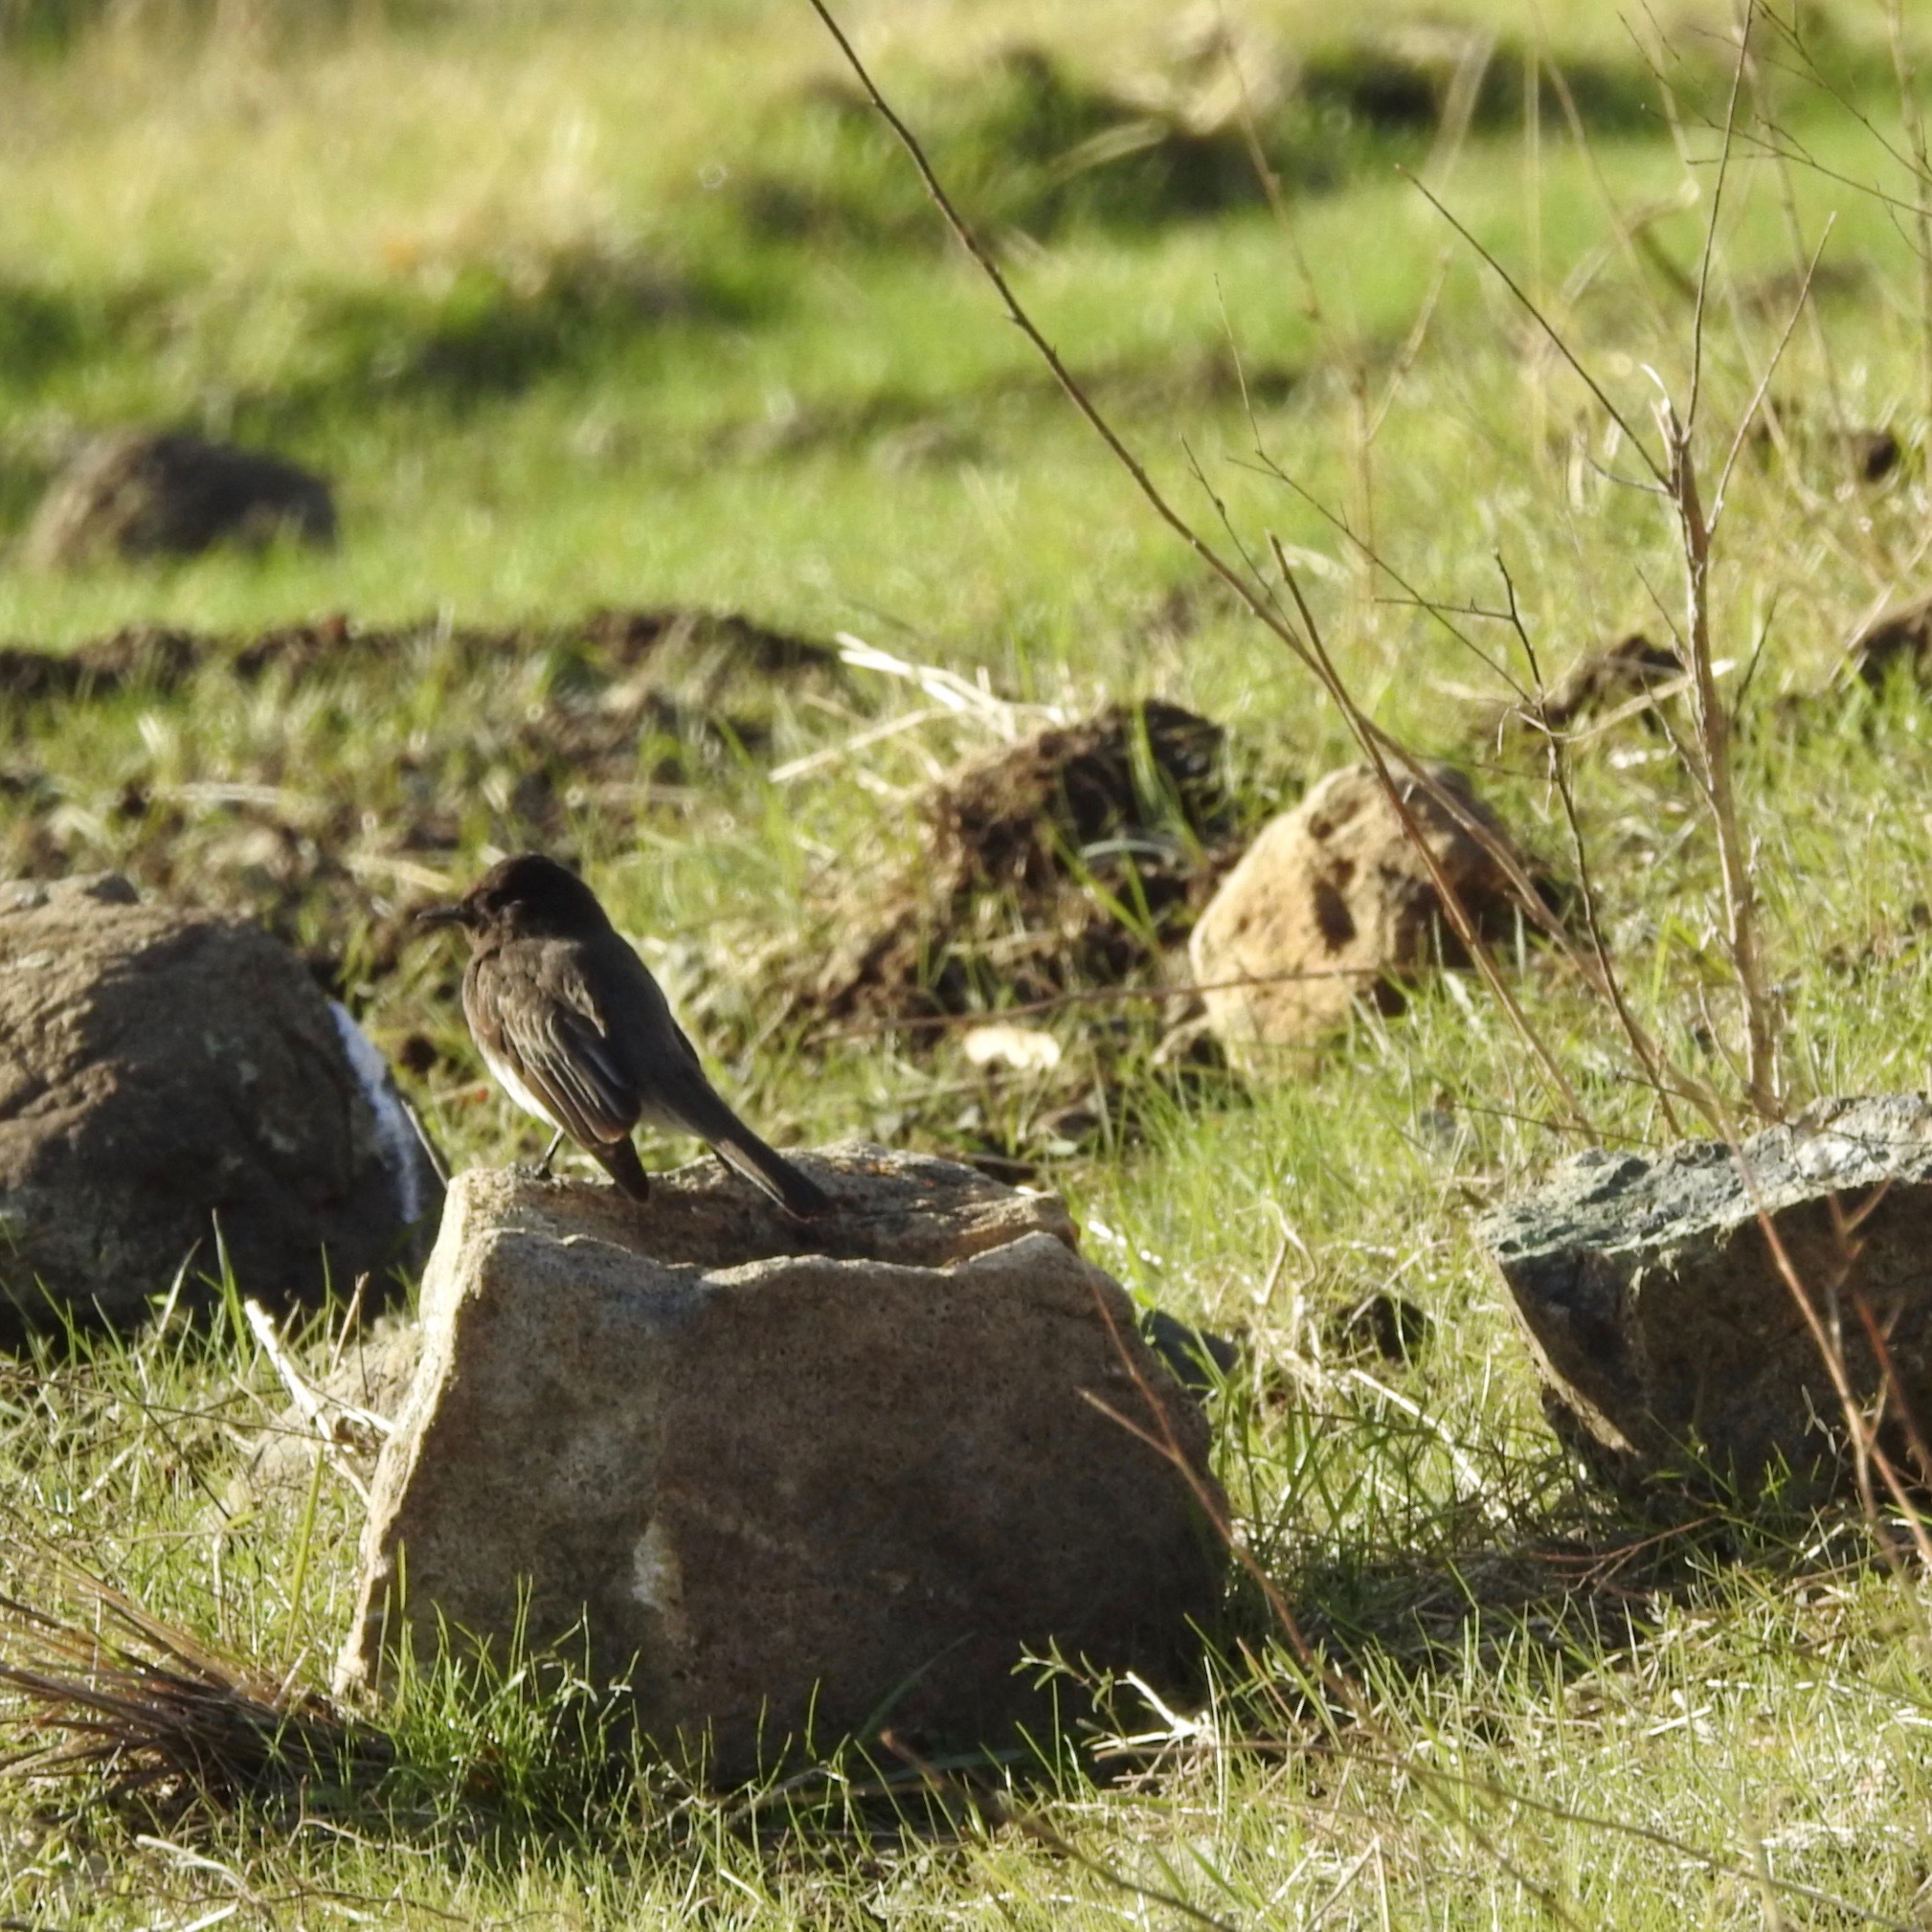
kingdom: Animalia
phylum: Chordata
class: Aves
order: Passeriformes
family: Tyrannidae
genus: Sayornis
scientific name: Sayornis nigricans
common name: Black phoebe
